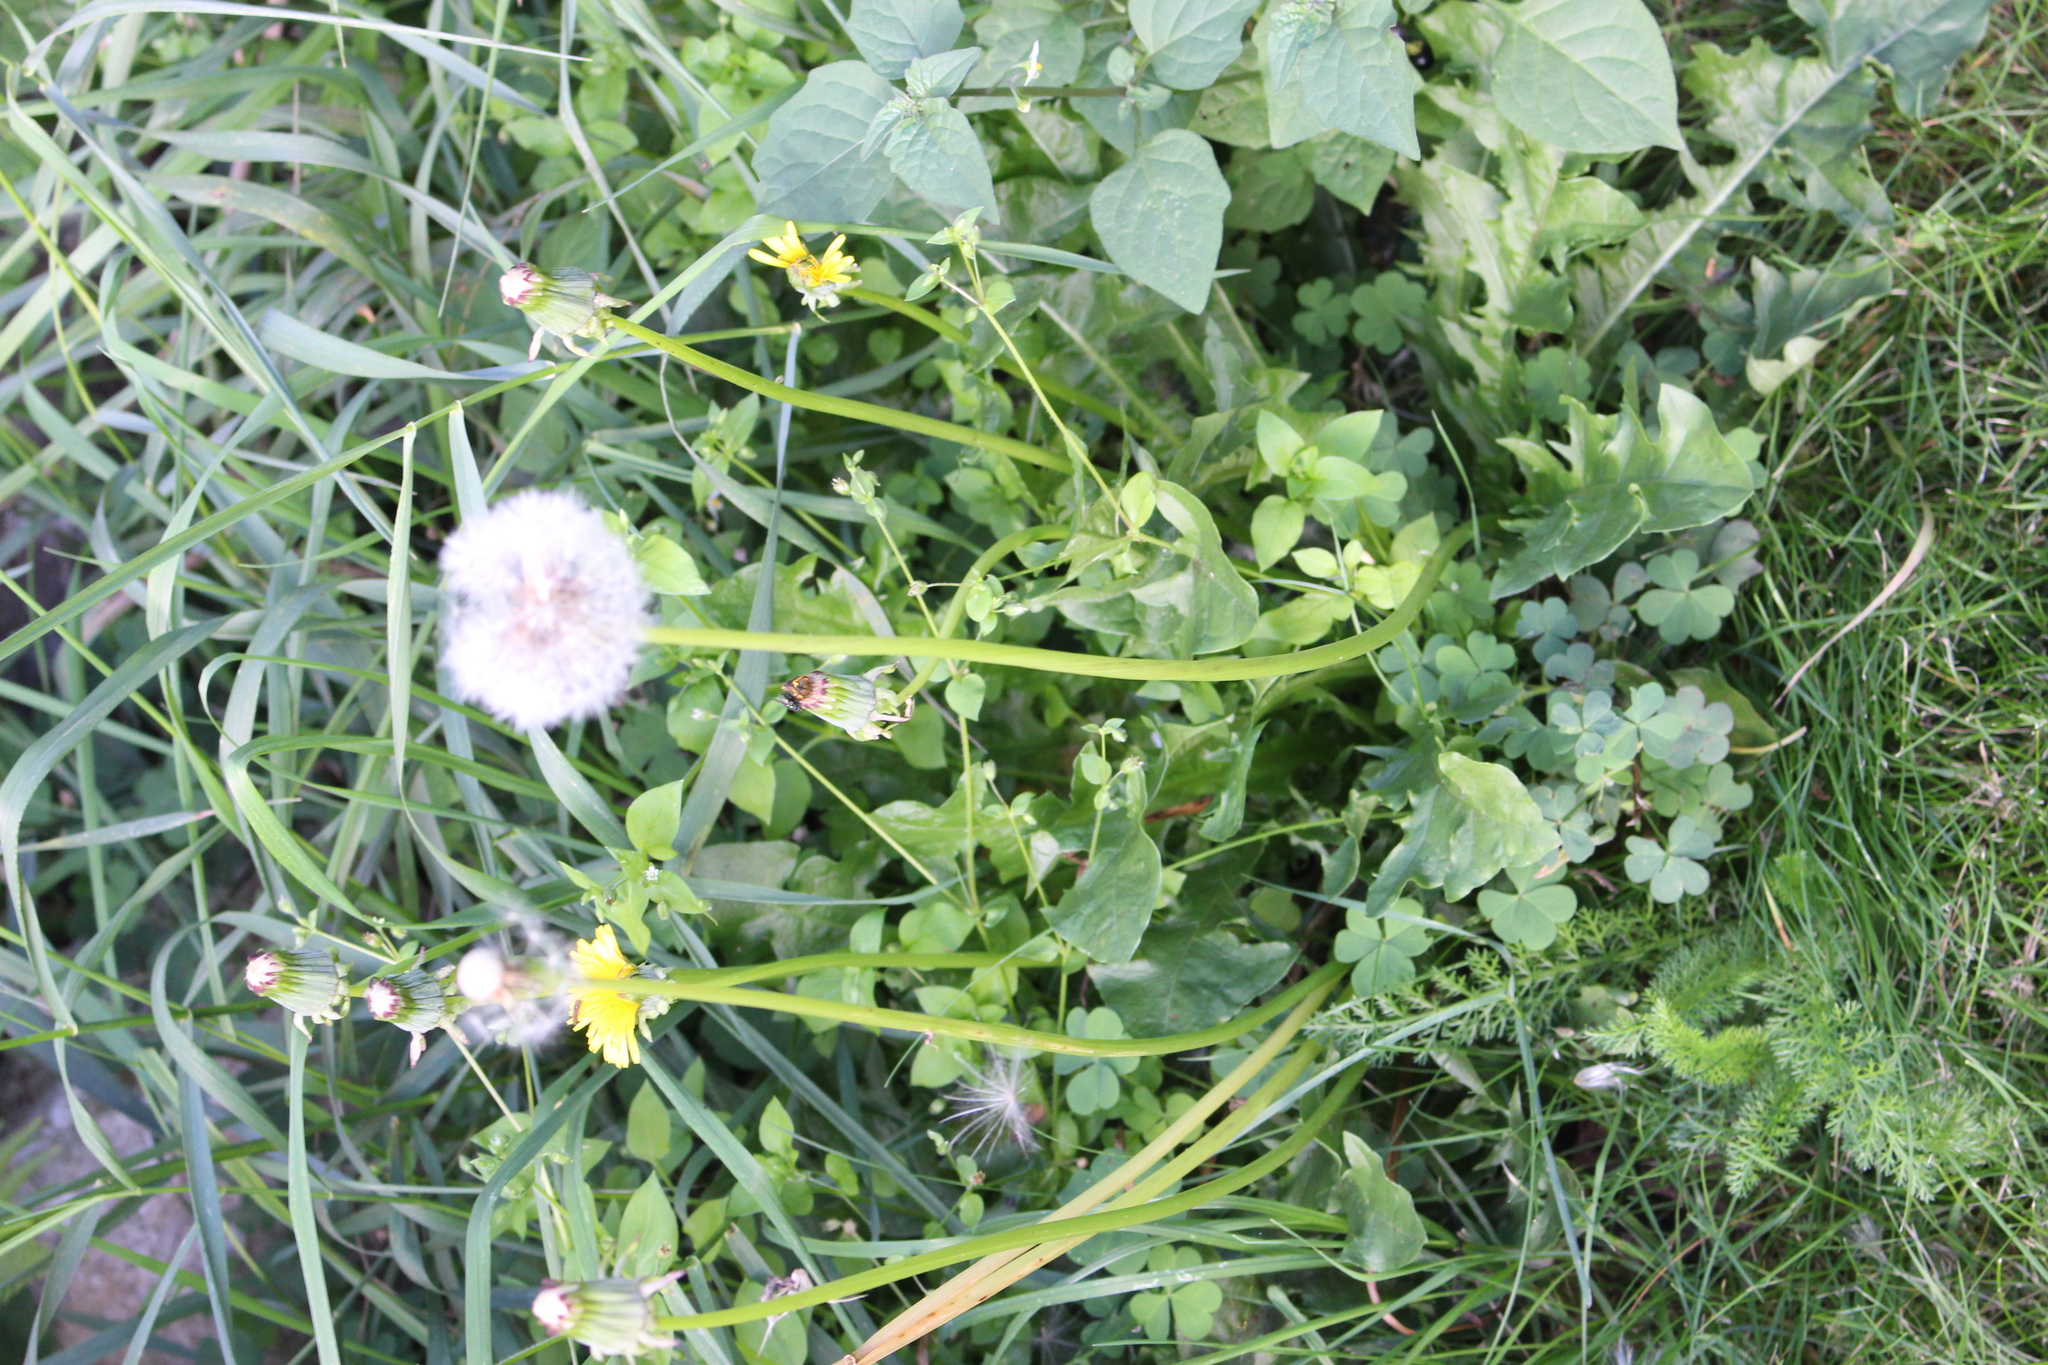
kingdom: Plantae
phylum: Tracheophyta
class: Magnoliopsida
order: Asterales
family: Asteraceae
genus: Taraxacum
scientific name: Taraxacum officinale
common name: Common dandelion
